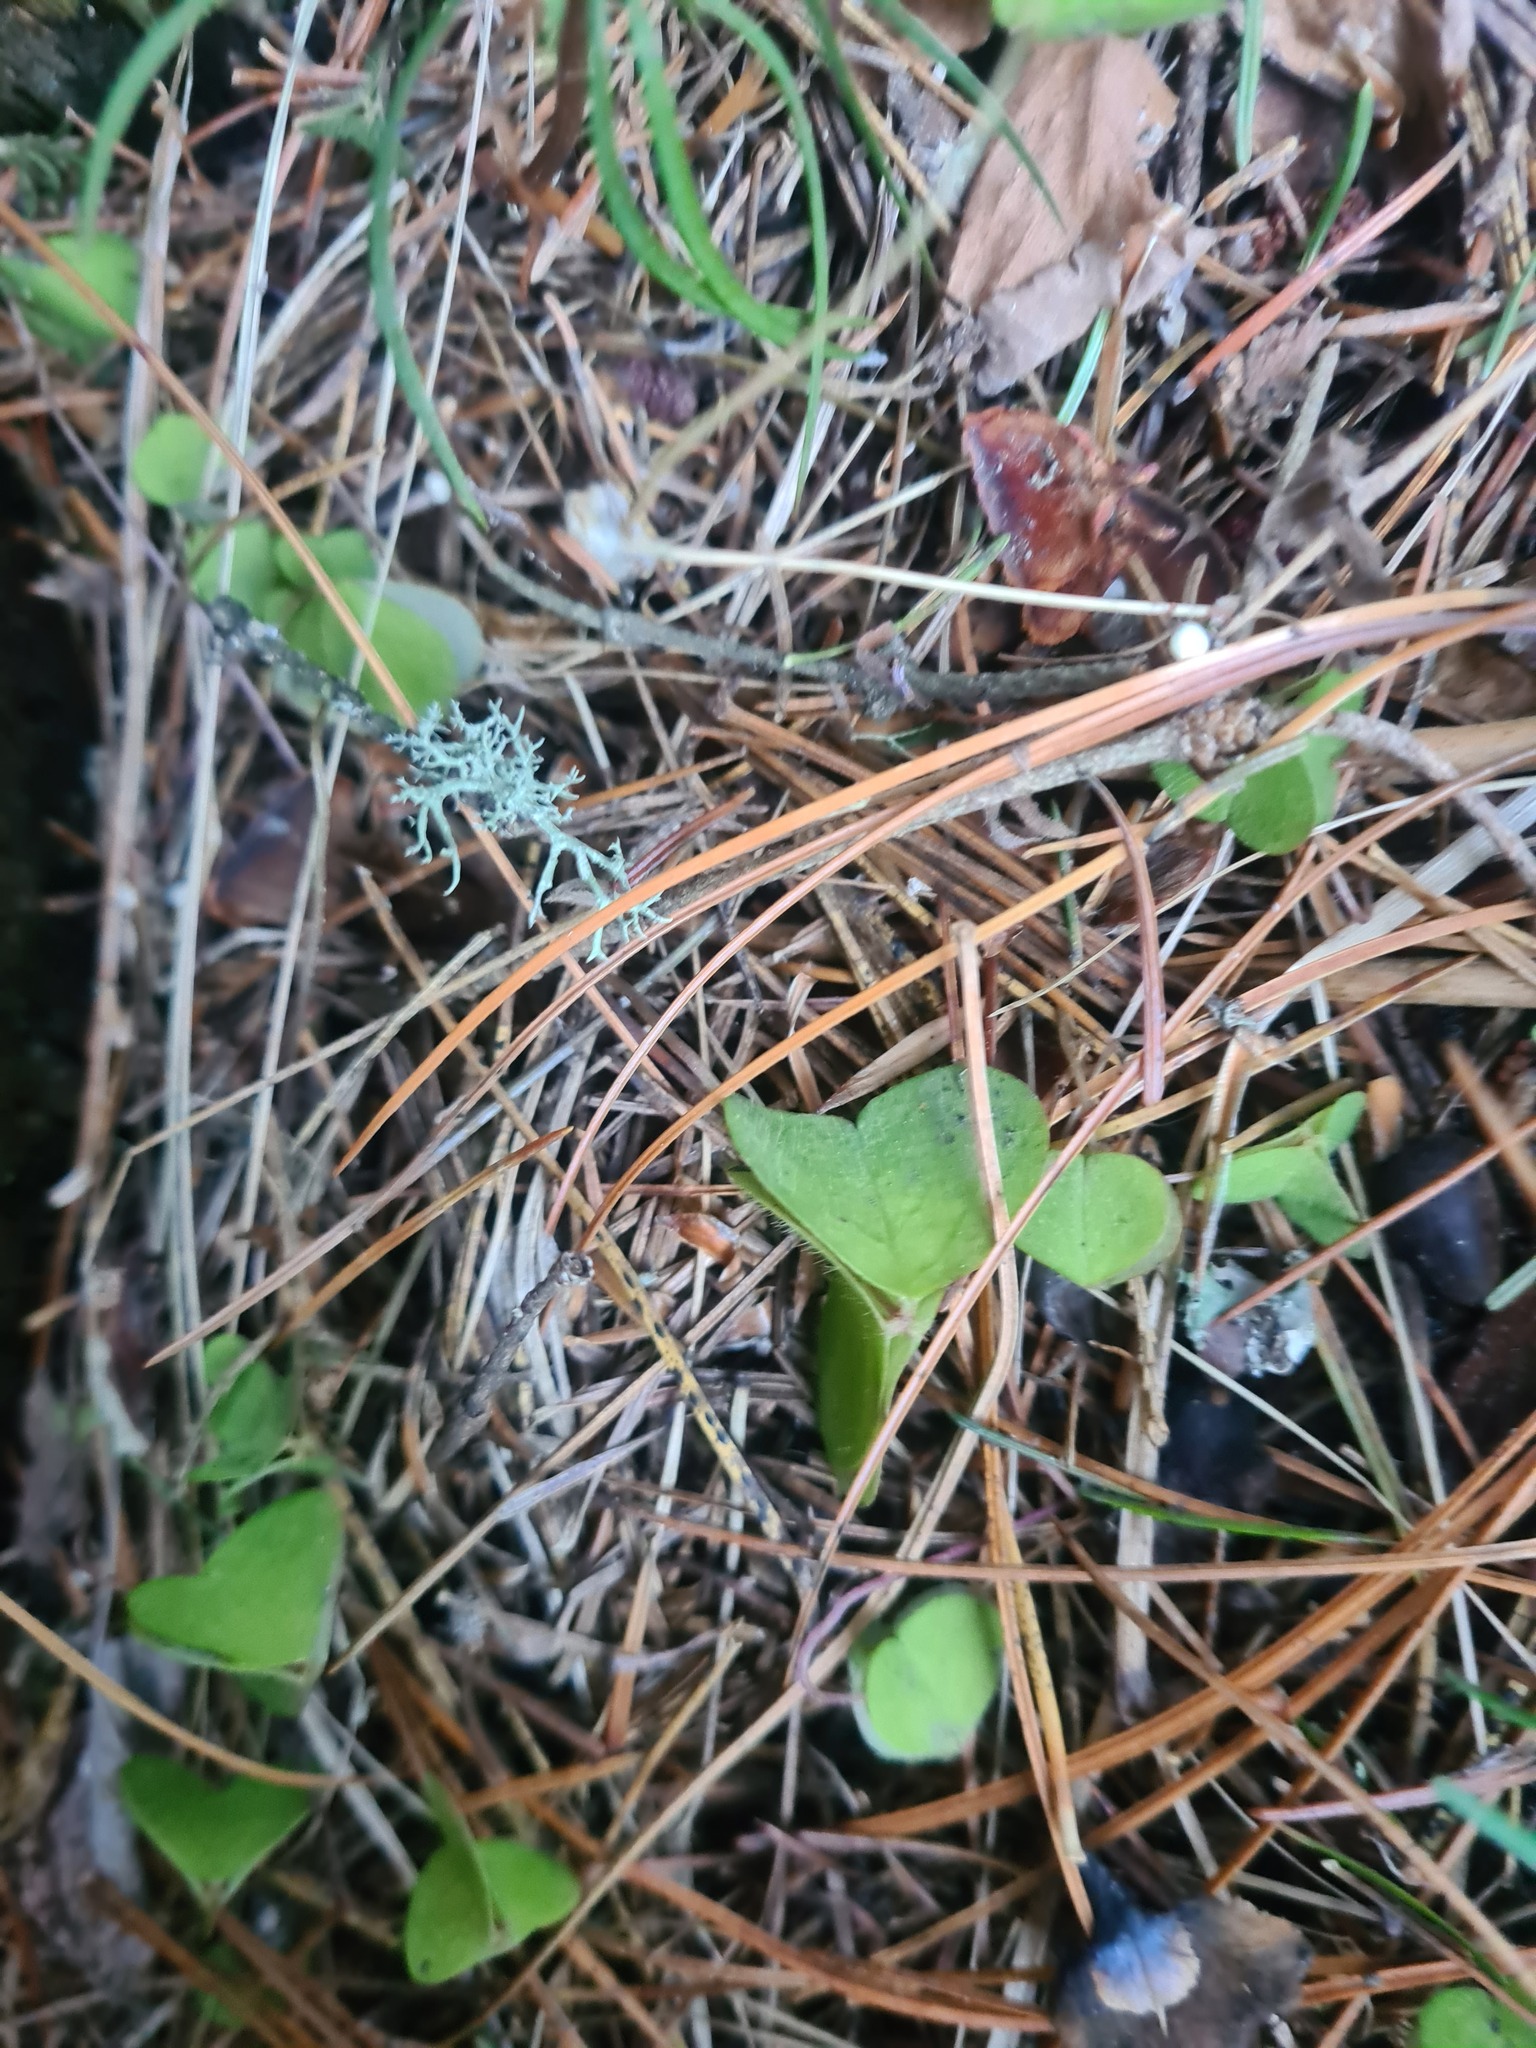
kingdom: Plantae
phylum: Tracheophyta
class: Magnoliopsida
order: Oxalidales
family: Oxalidaceae
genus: Oxalis
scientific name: Oxalis acetosella
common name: Wood-sorrel
